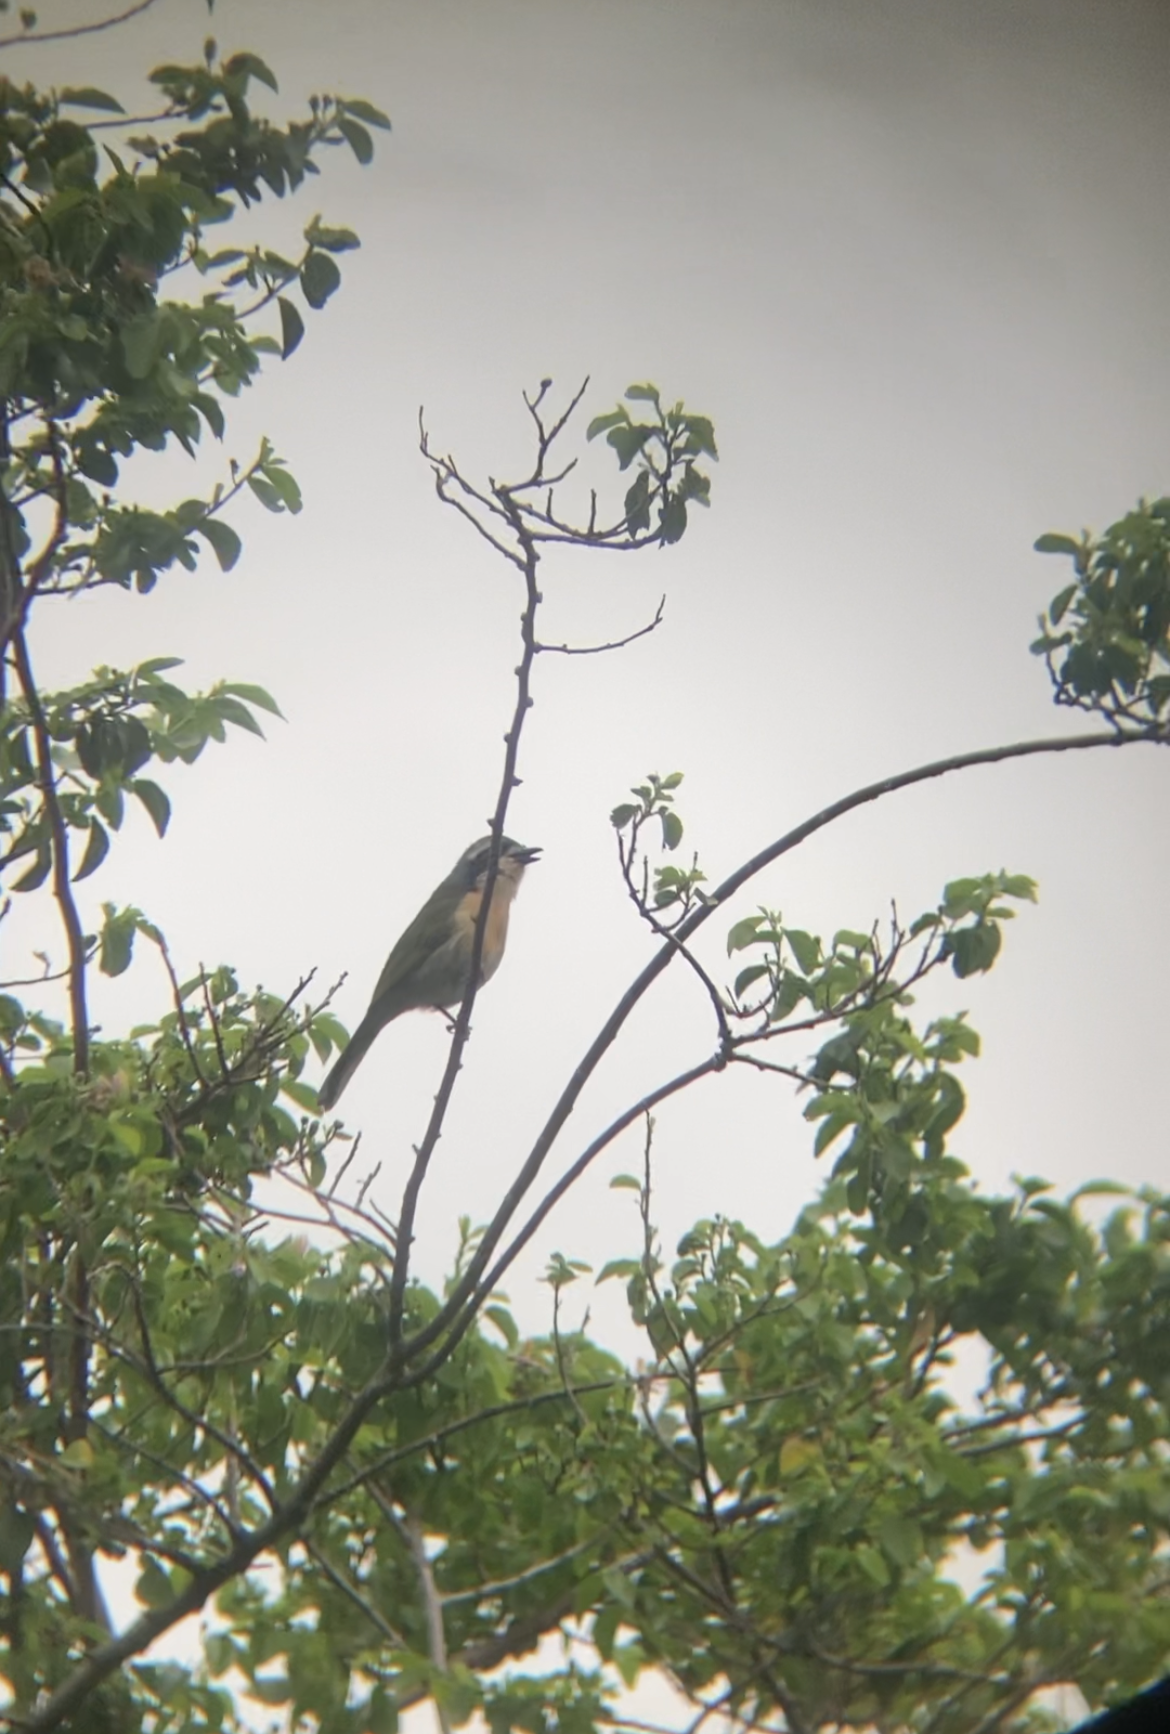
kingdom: Animalia
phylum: Chordata
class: Aves
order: Passeriformes
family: Malaconotidae
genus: Chlorophoneus
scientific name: Chlorophoneus olivaceus
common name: Olive bushshrike
